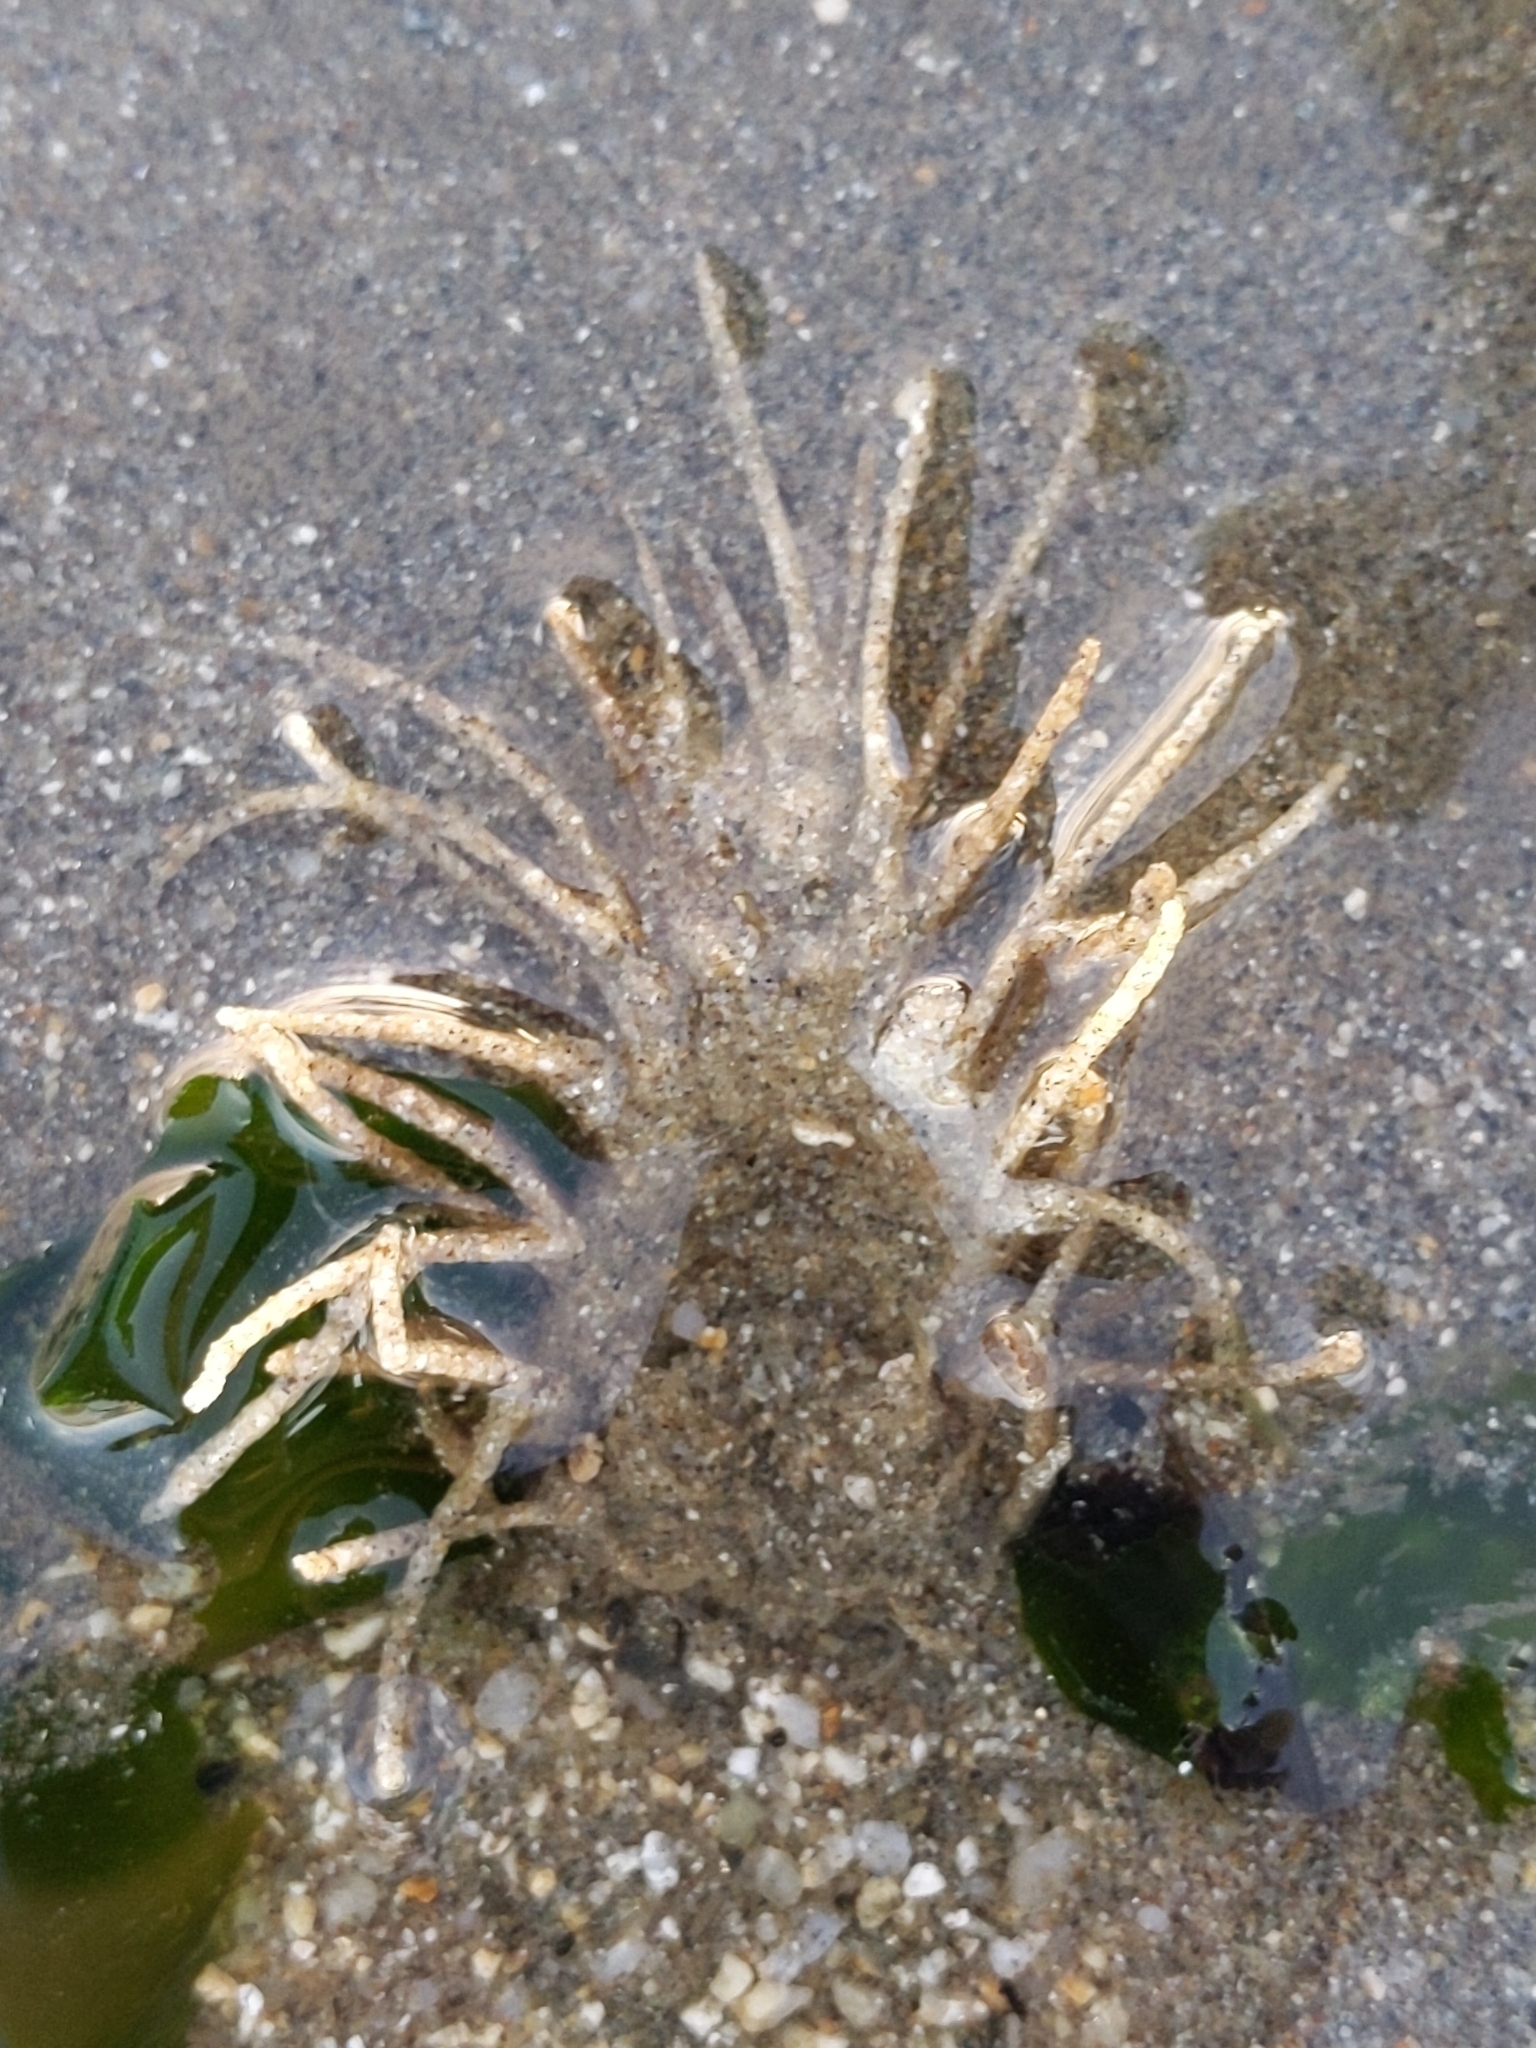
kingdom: Animalia
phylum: Annelida
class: Polychaeta
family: Terebellidae
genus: Pista
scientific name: Pista pacifica
